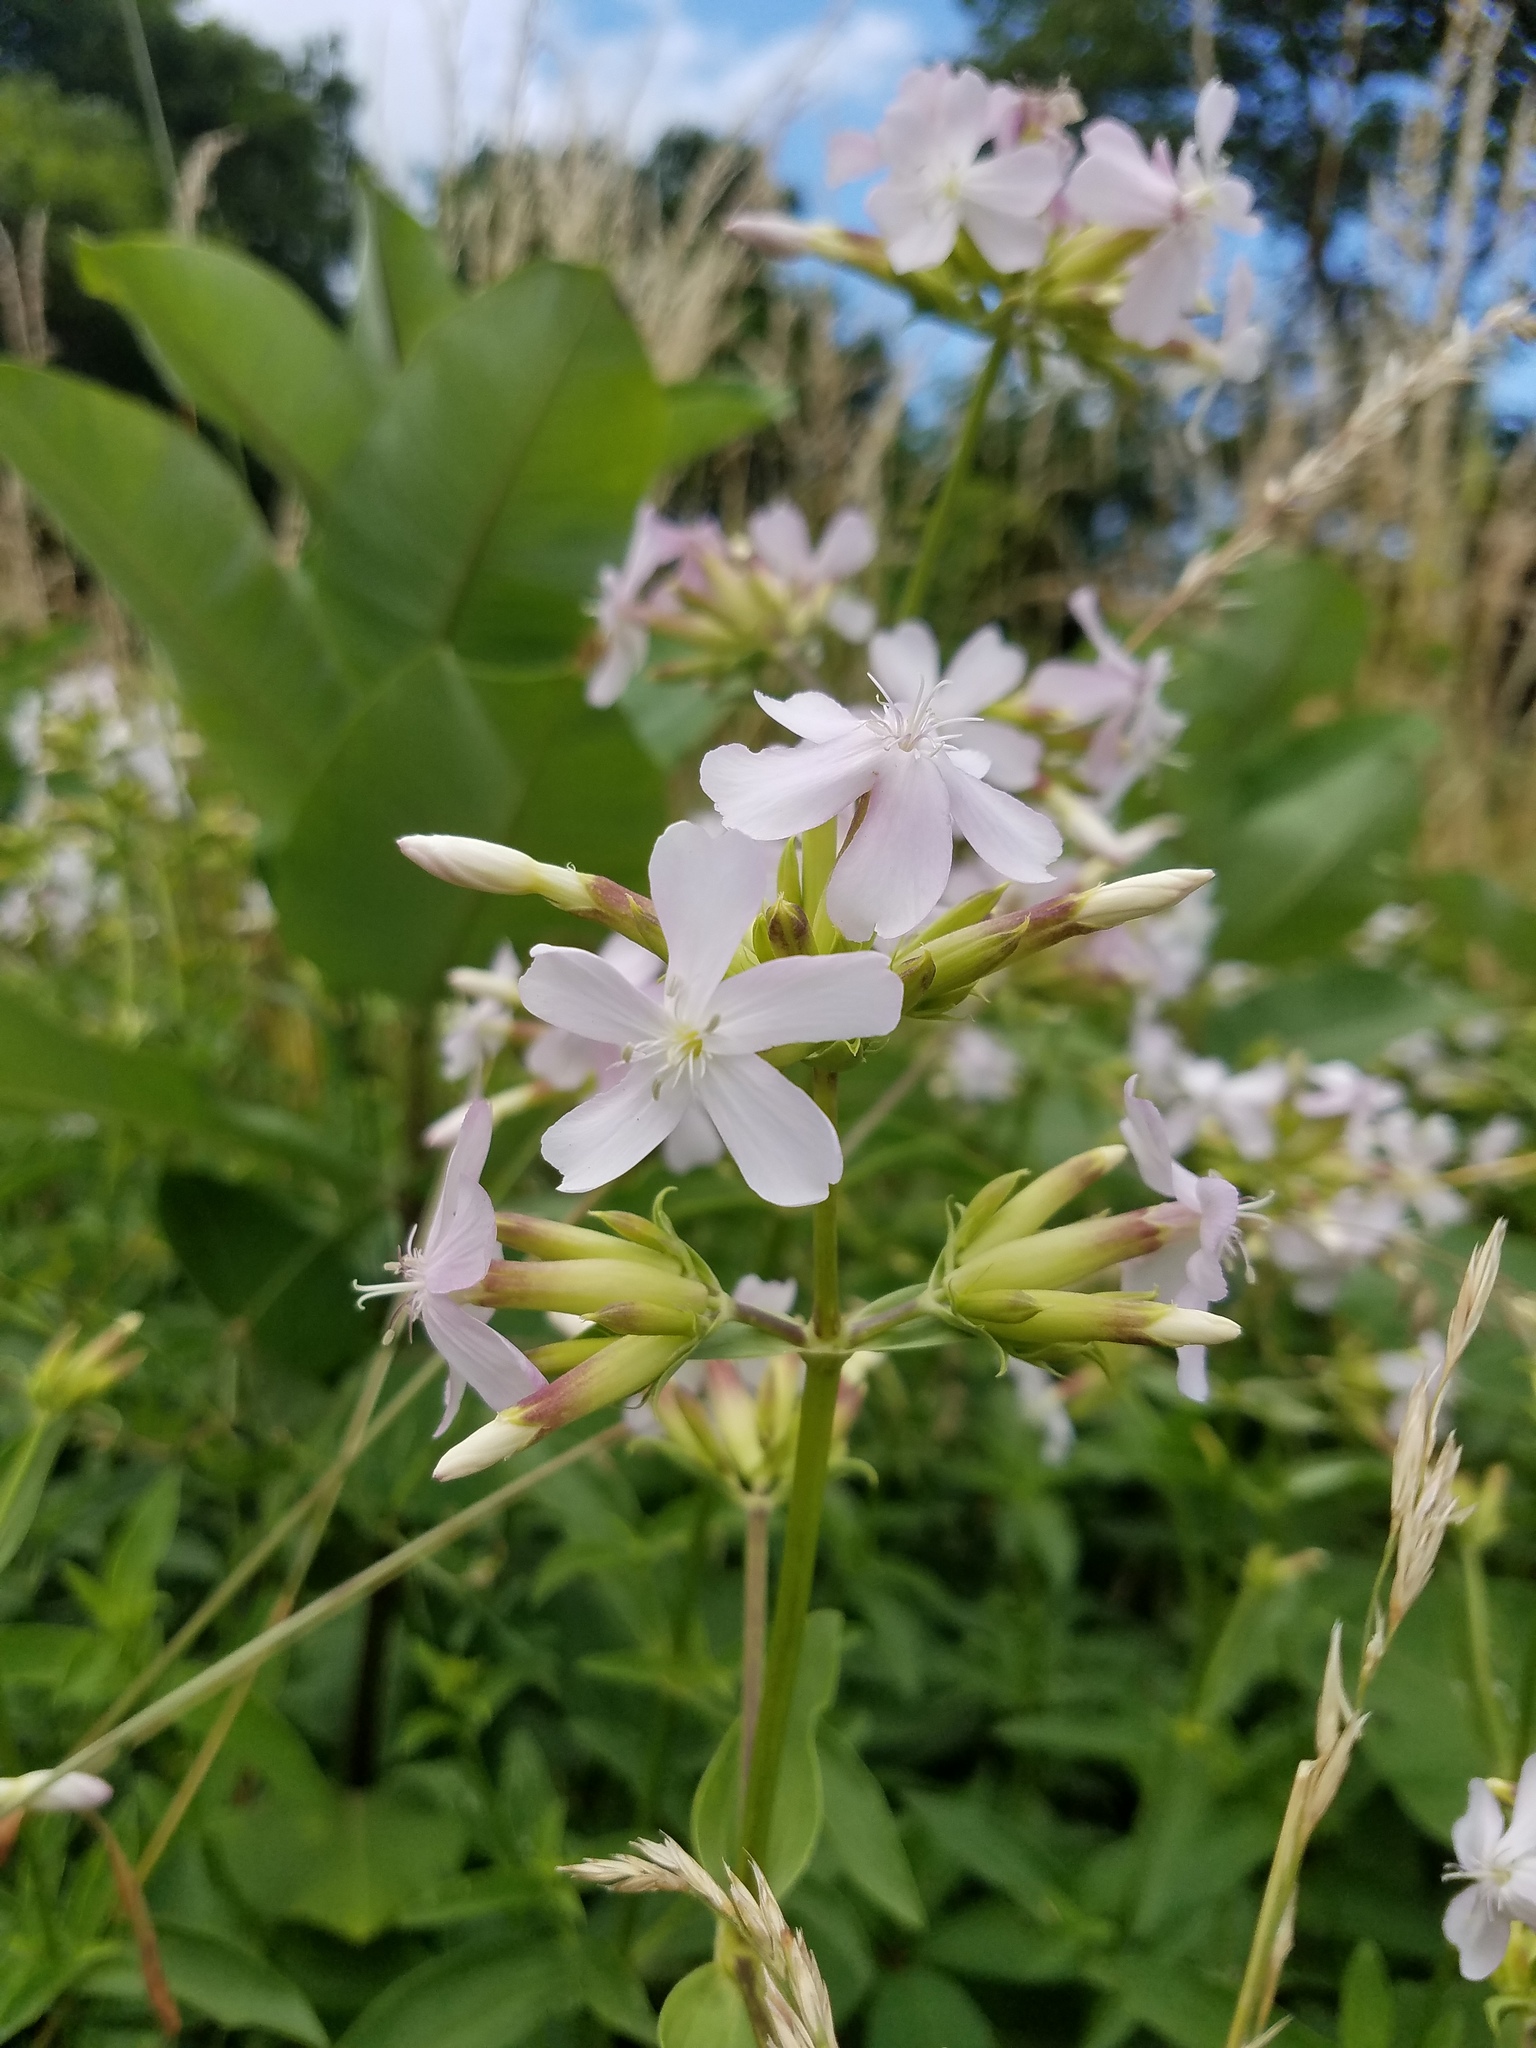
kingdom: Plantae
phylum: Tracheophyta
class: Magnoliopsida
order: Caryophyllales
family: Caryophyllaceae
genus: Saponaria
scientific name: Saponaria officinalis
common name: Soapwort
